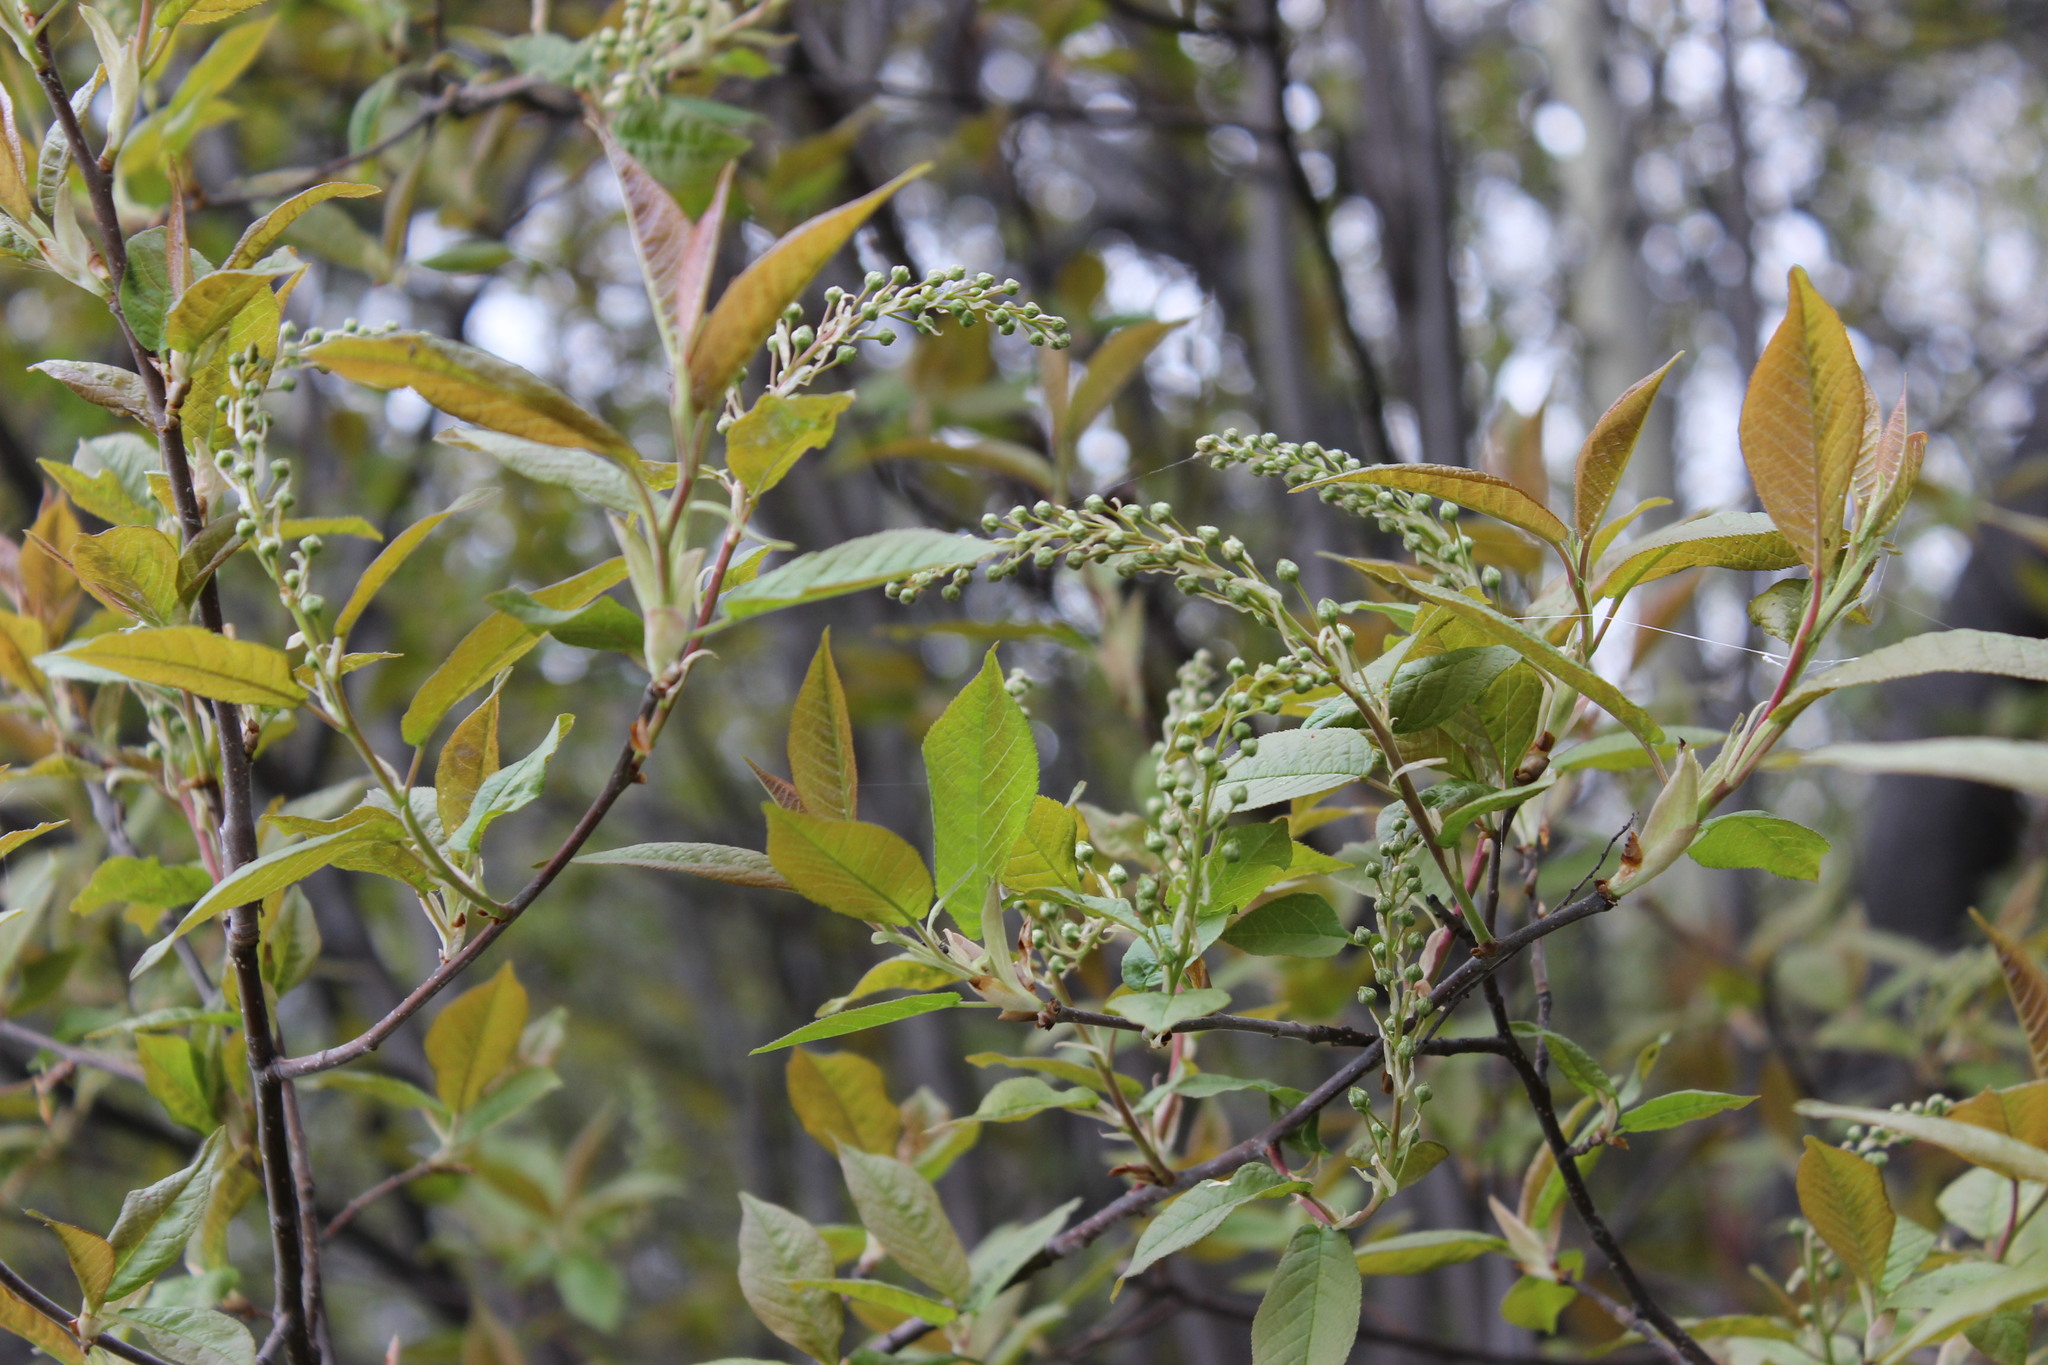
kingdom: Plantae
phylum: Tracheophyta
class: Magnoliopsida
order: Rosales
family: Rosaceae
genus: Prunus
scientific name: Prunus padus
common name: Bird cherry
